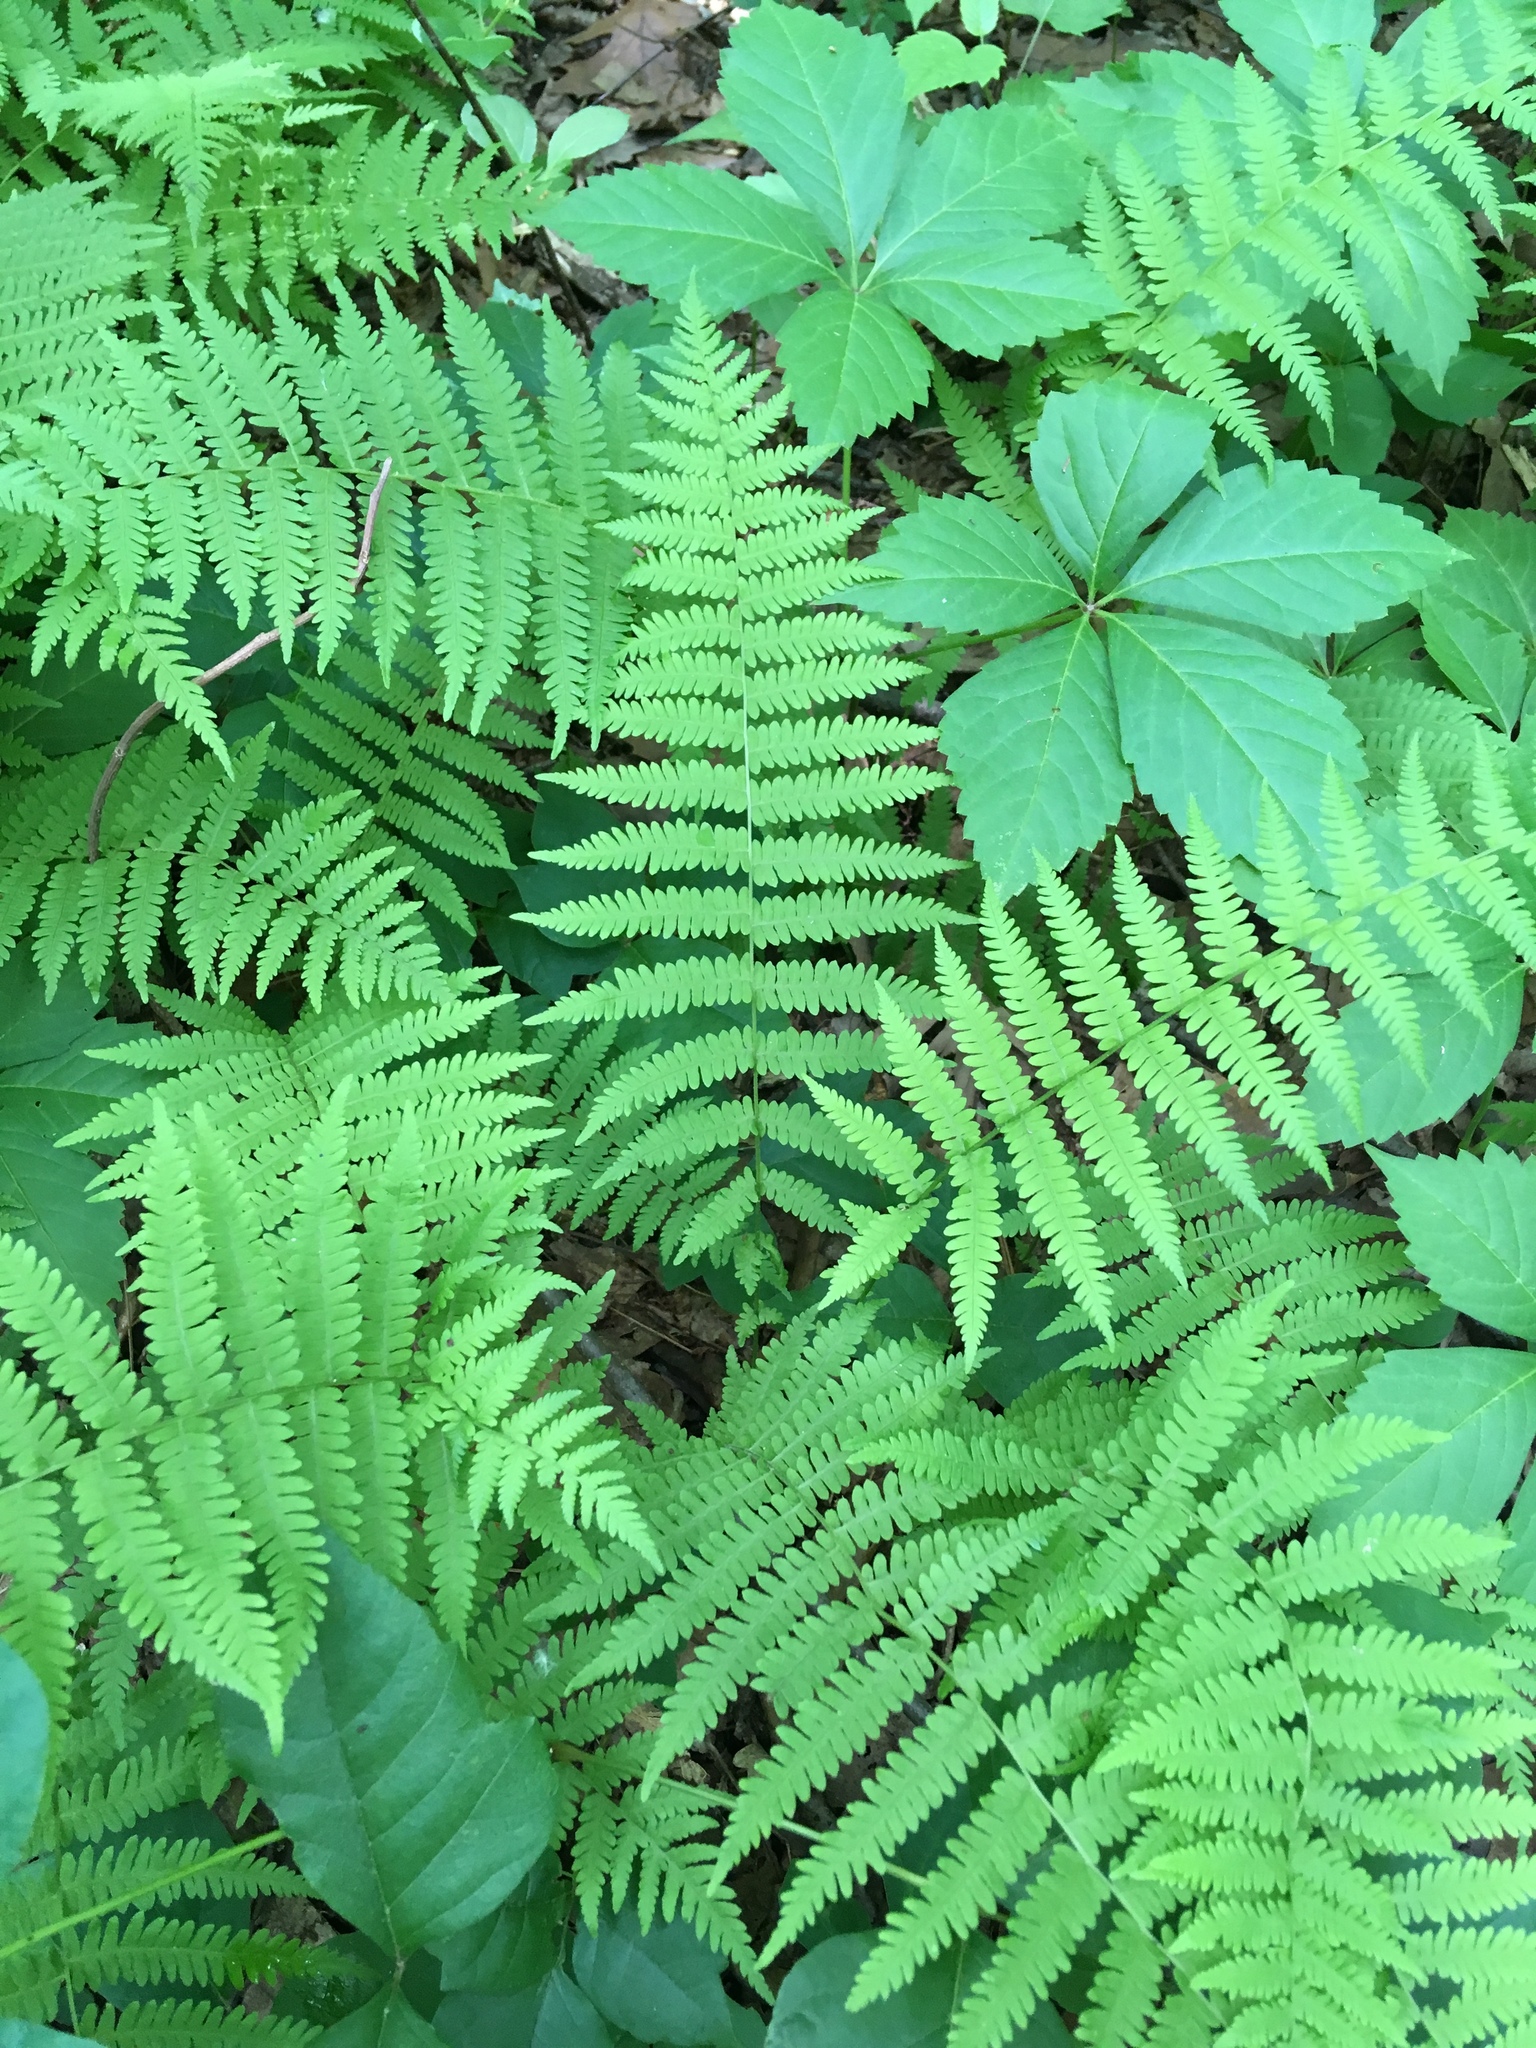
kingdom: Plantae
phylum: Tracheophyta
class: Polypodiopsida
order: Polypodiales
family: Thelypteridaceae
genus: Amauropelta
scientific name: Amauropelta noveboracensis
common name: New york fern
